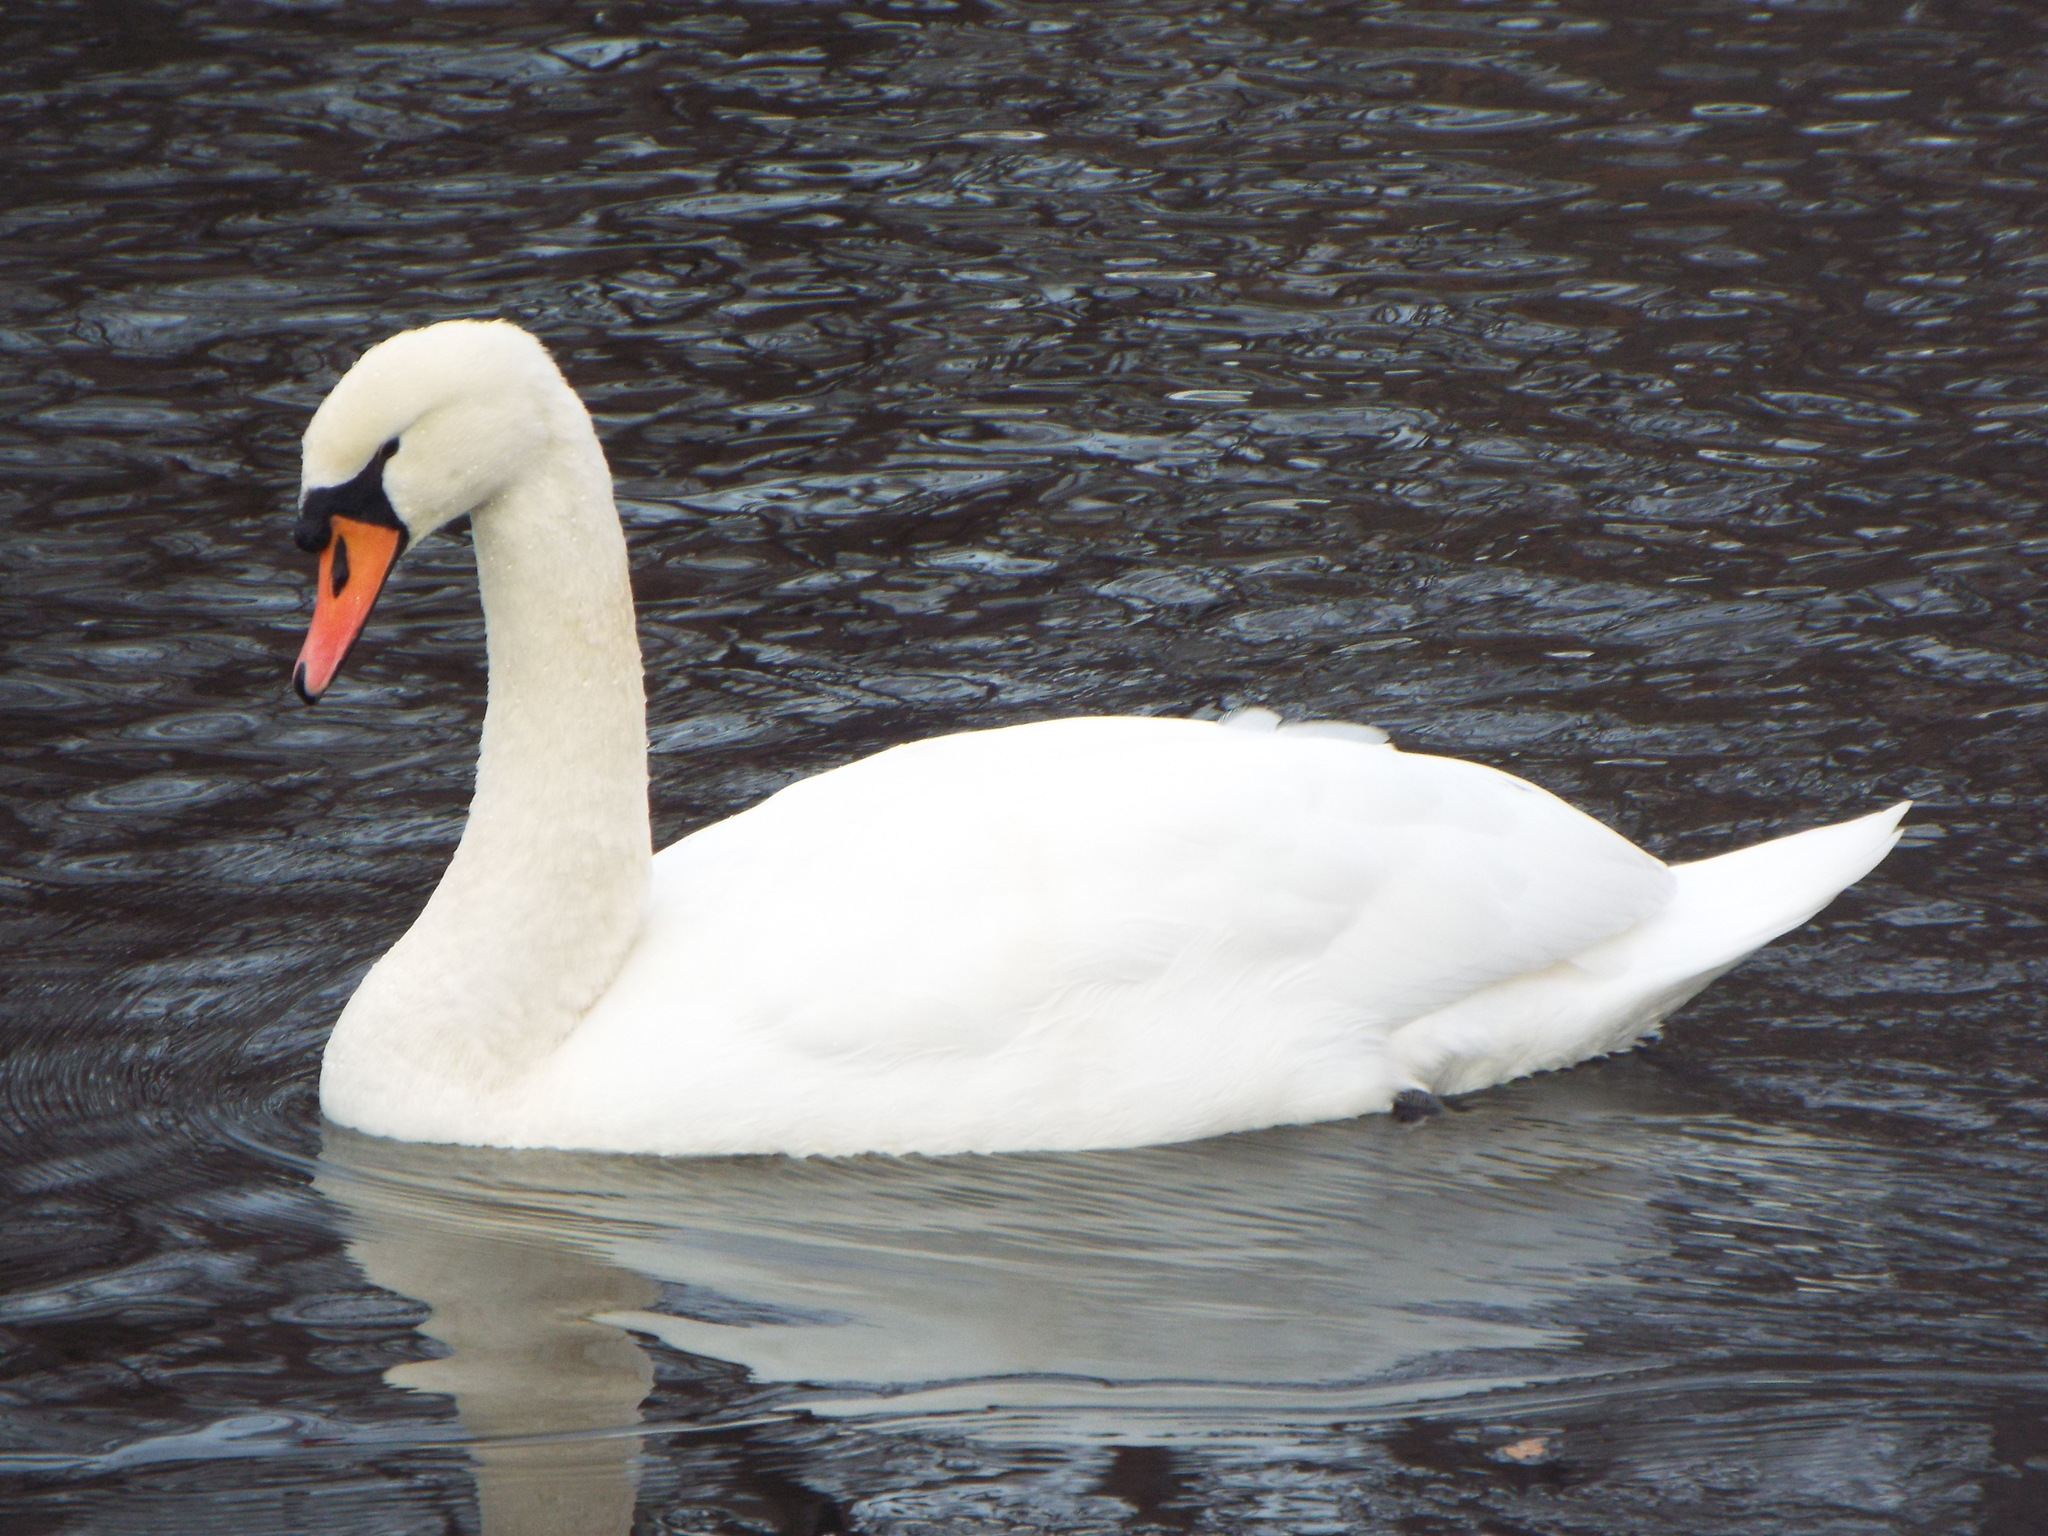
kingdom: Animalia
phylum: Chordata
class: Aves
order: Anseriformes
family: Anatidae
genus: Cygnus
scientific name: Cygnus olor
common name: Mute swan
